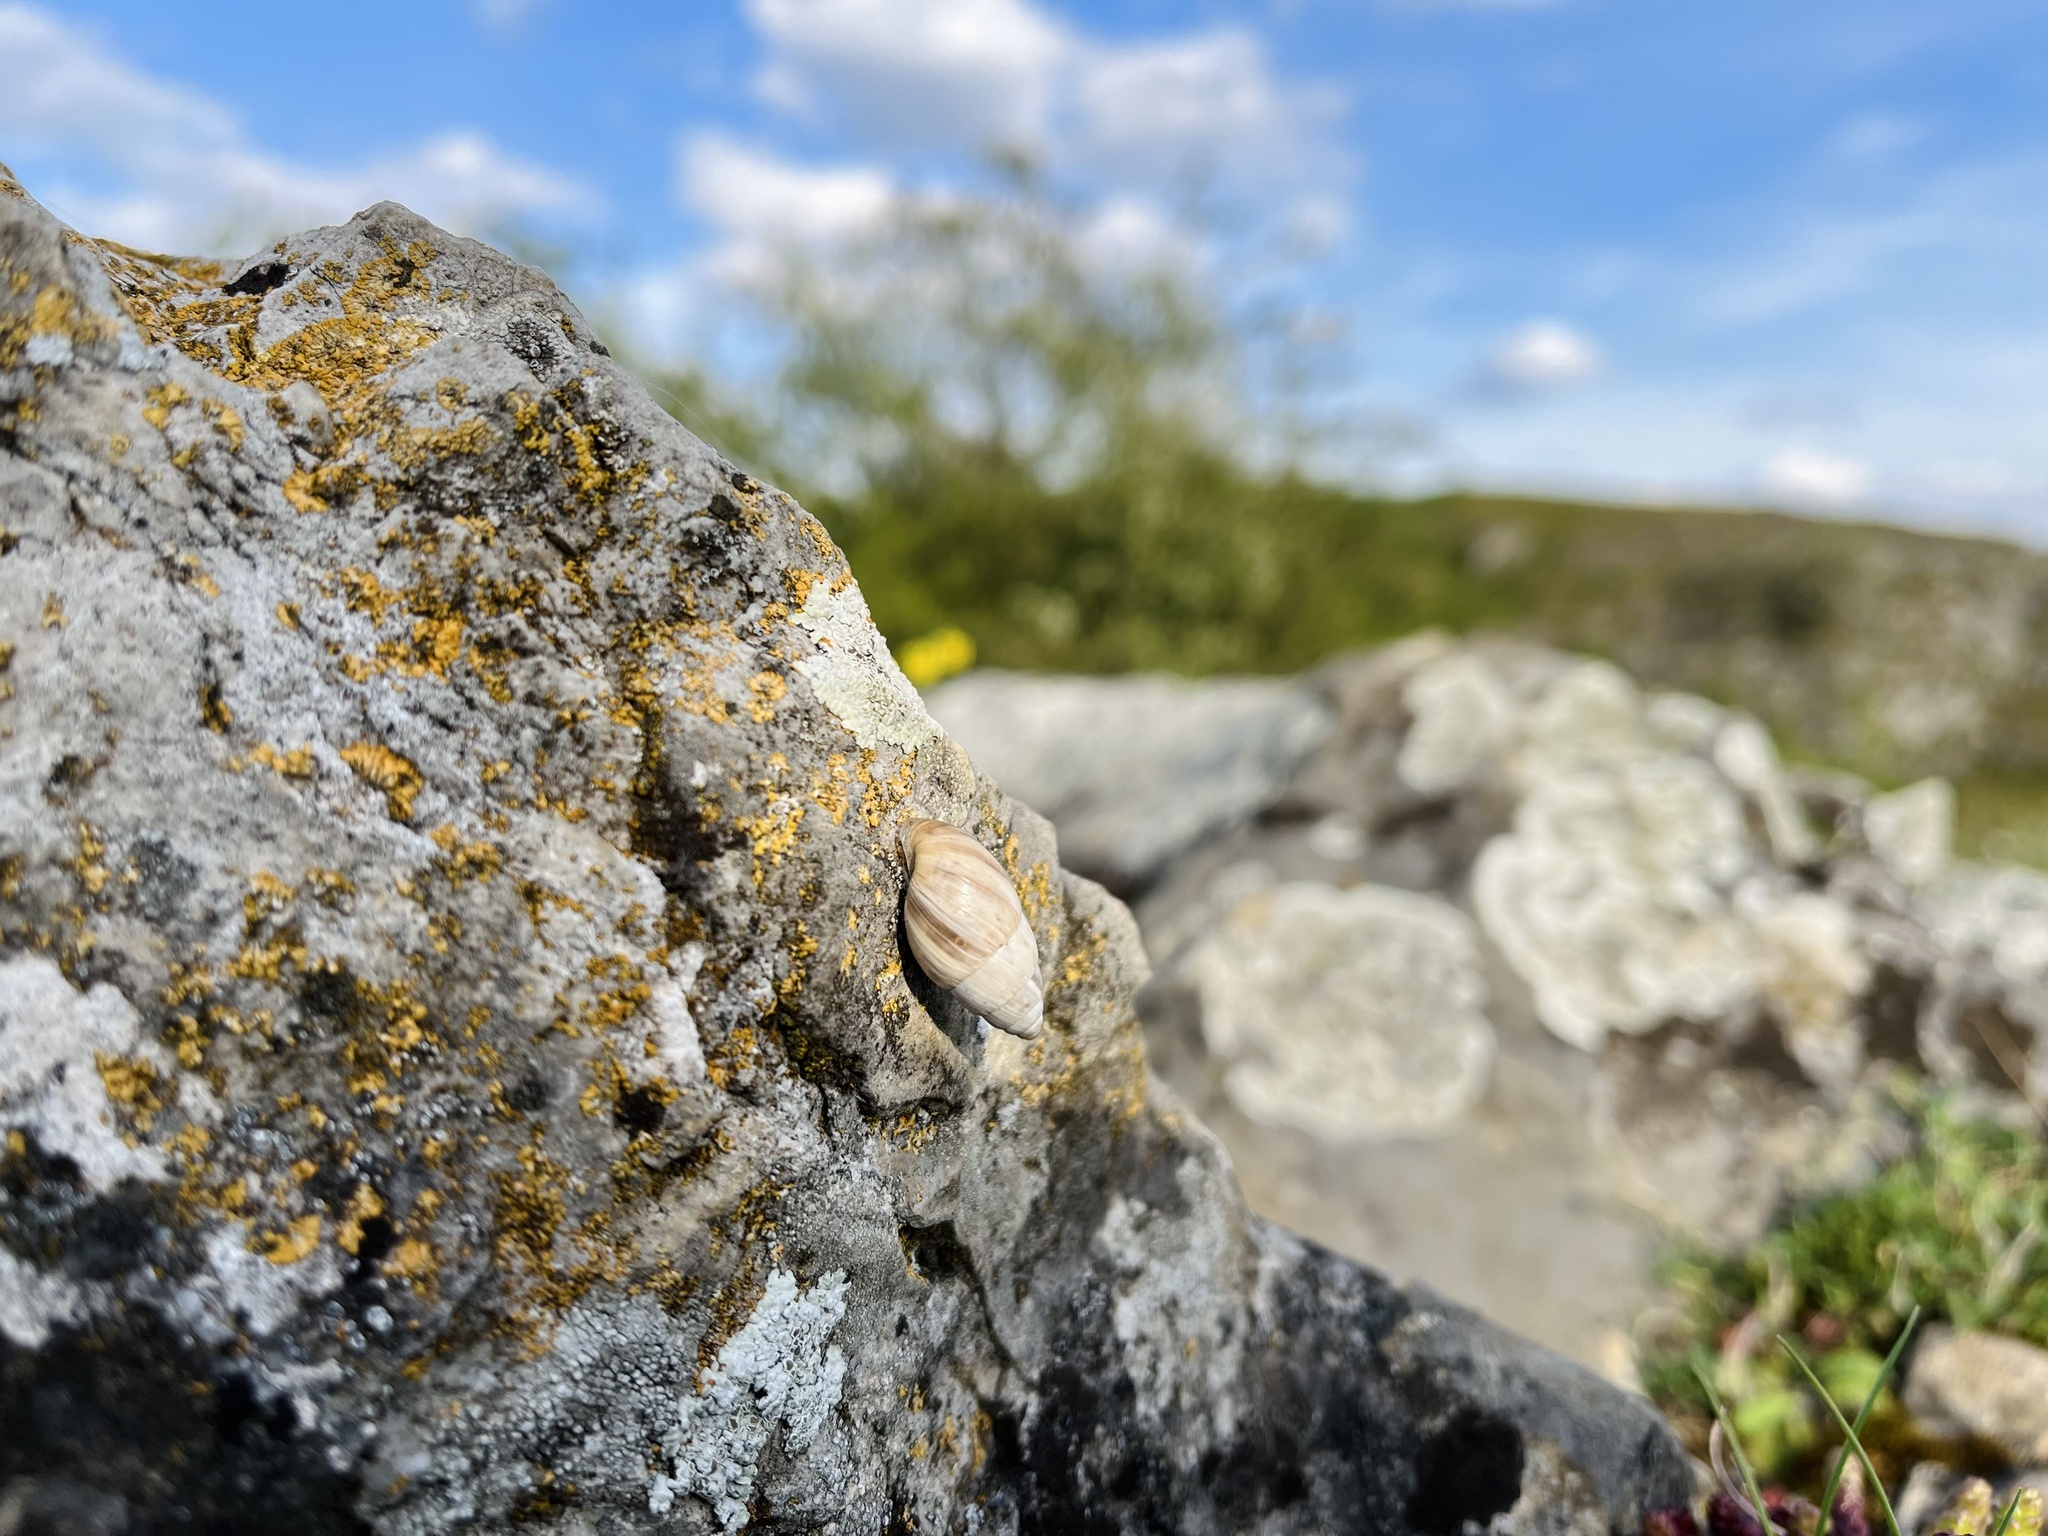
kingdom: Animalia
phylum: Mollusca
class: Gastropoda
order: Stylommatophora
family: Enidae
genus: Zebrina
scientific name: Zebrina detrita
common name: Large bulin
